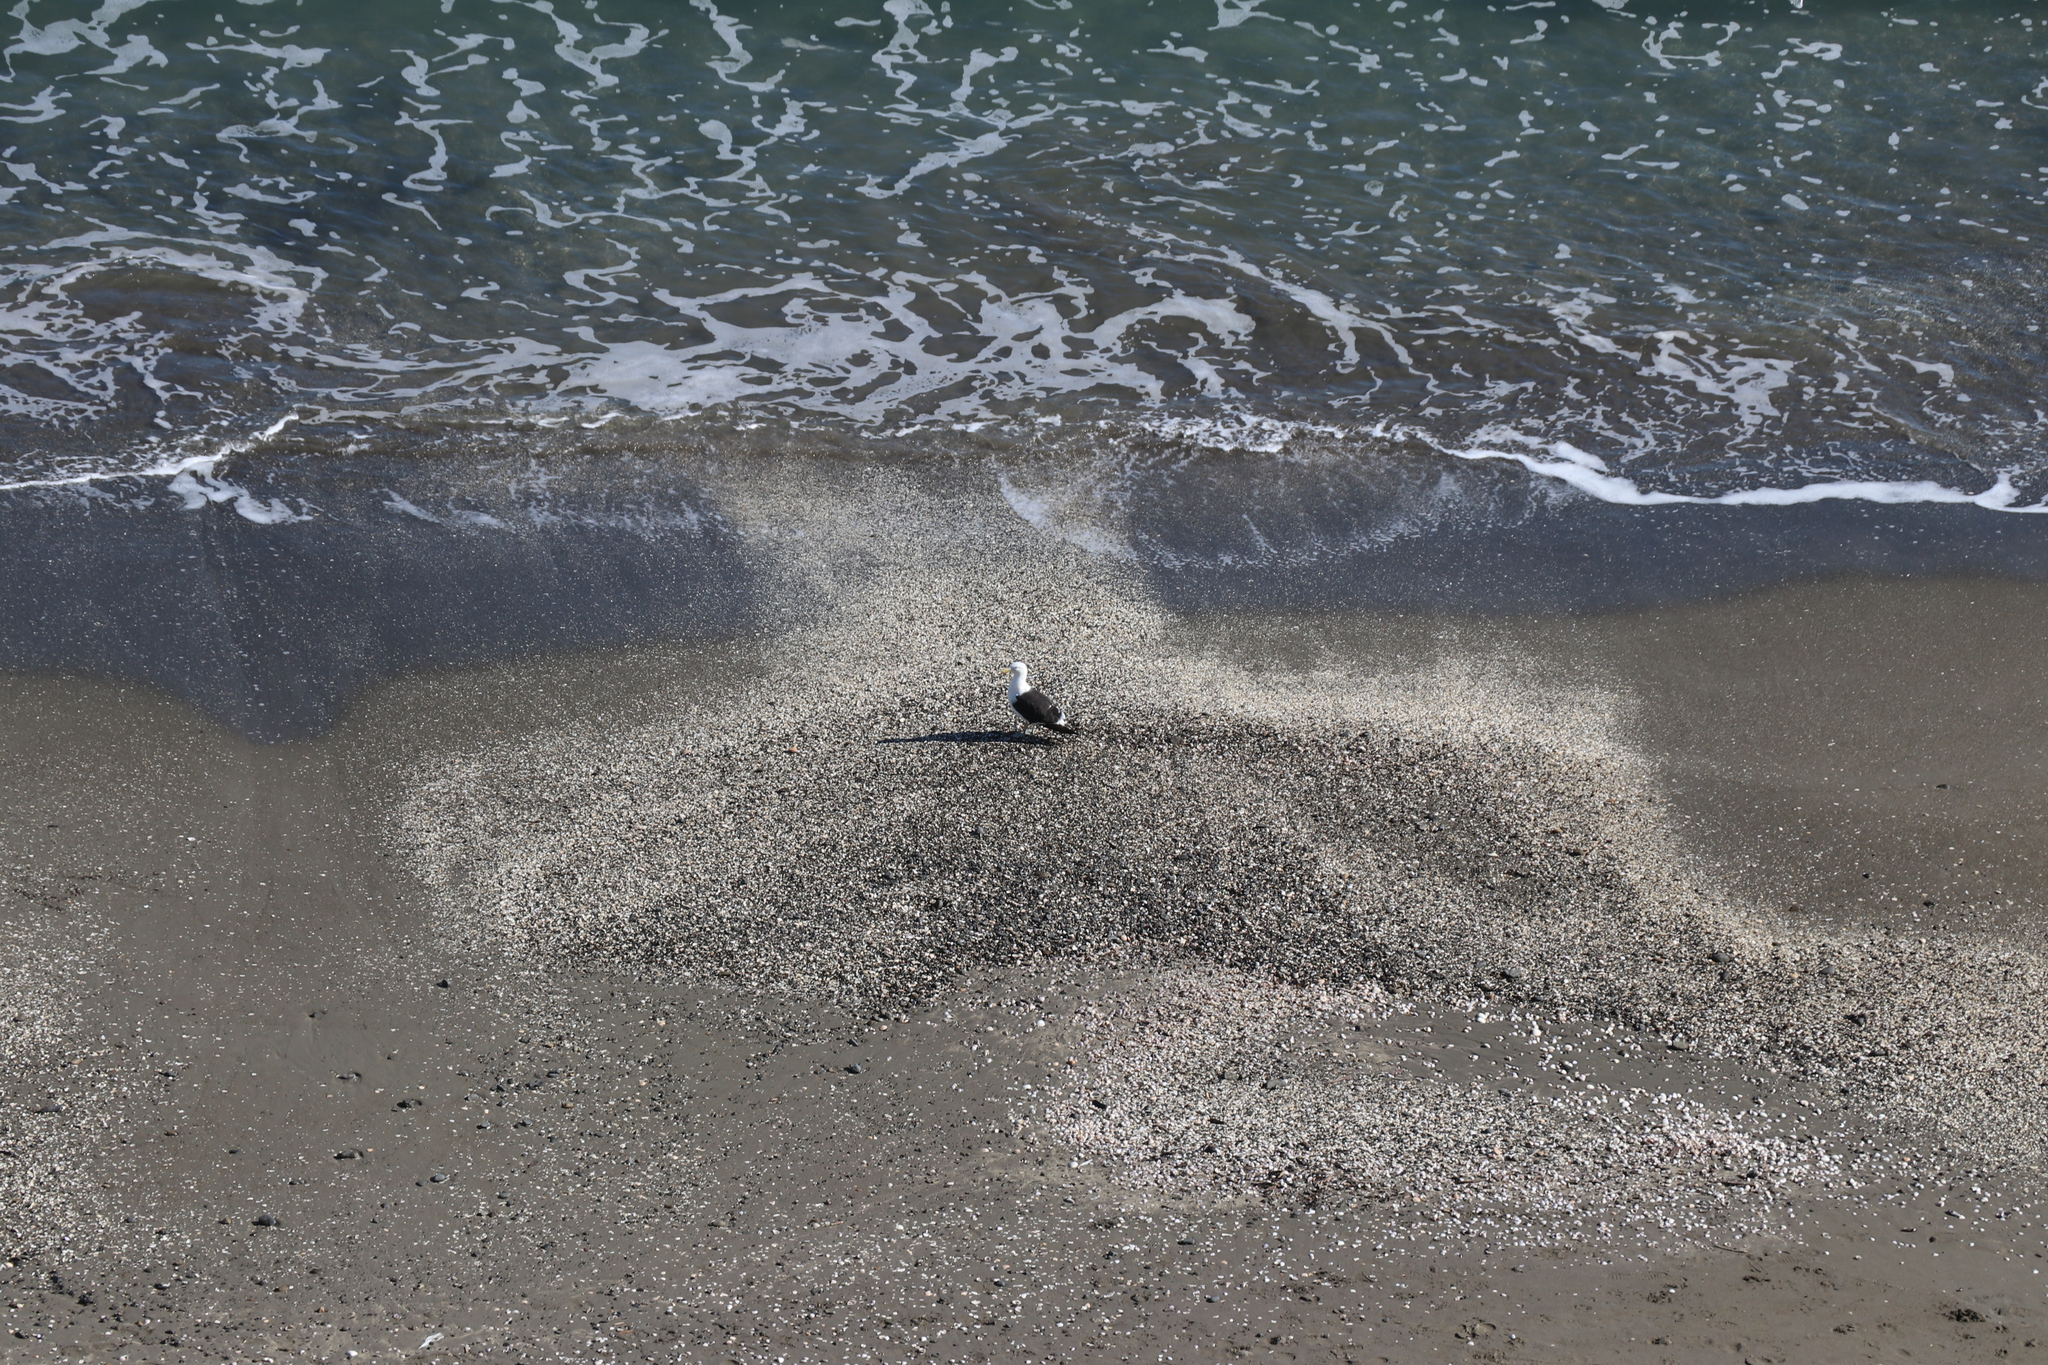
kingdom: Animalia
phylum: Chordata
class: Aves
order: Charadriiformes
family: Laridae
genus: Larus
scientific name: Larus dominicanus
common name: Kelp gull
